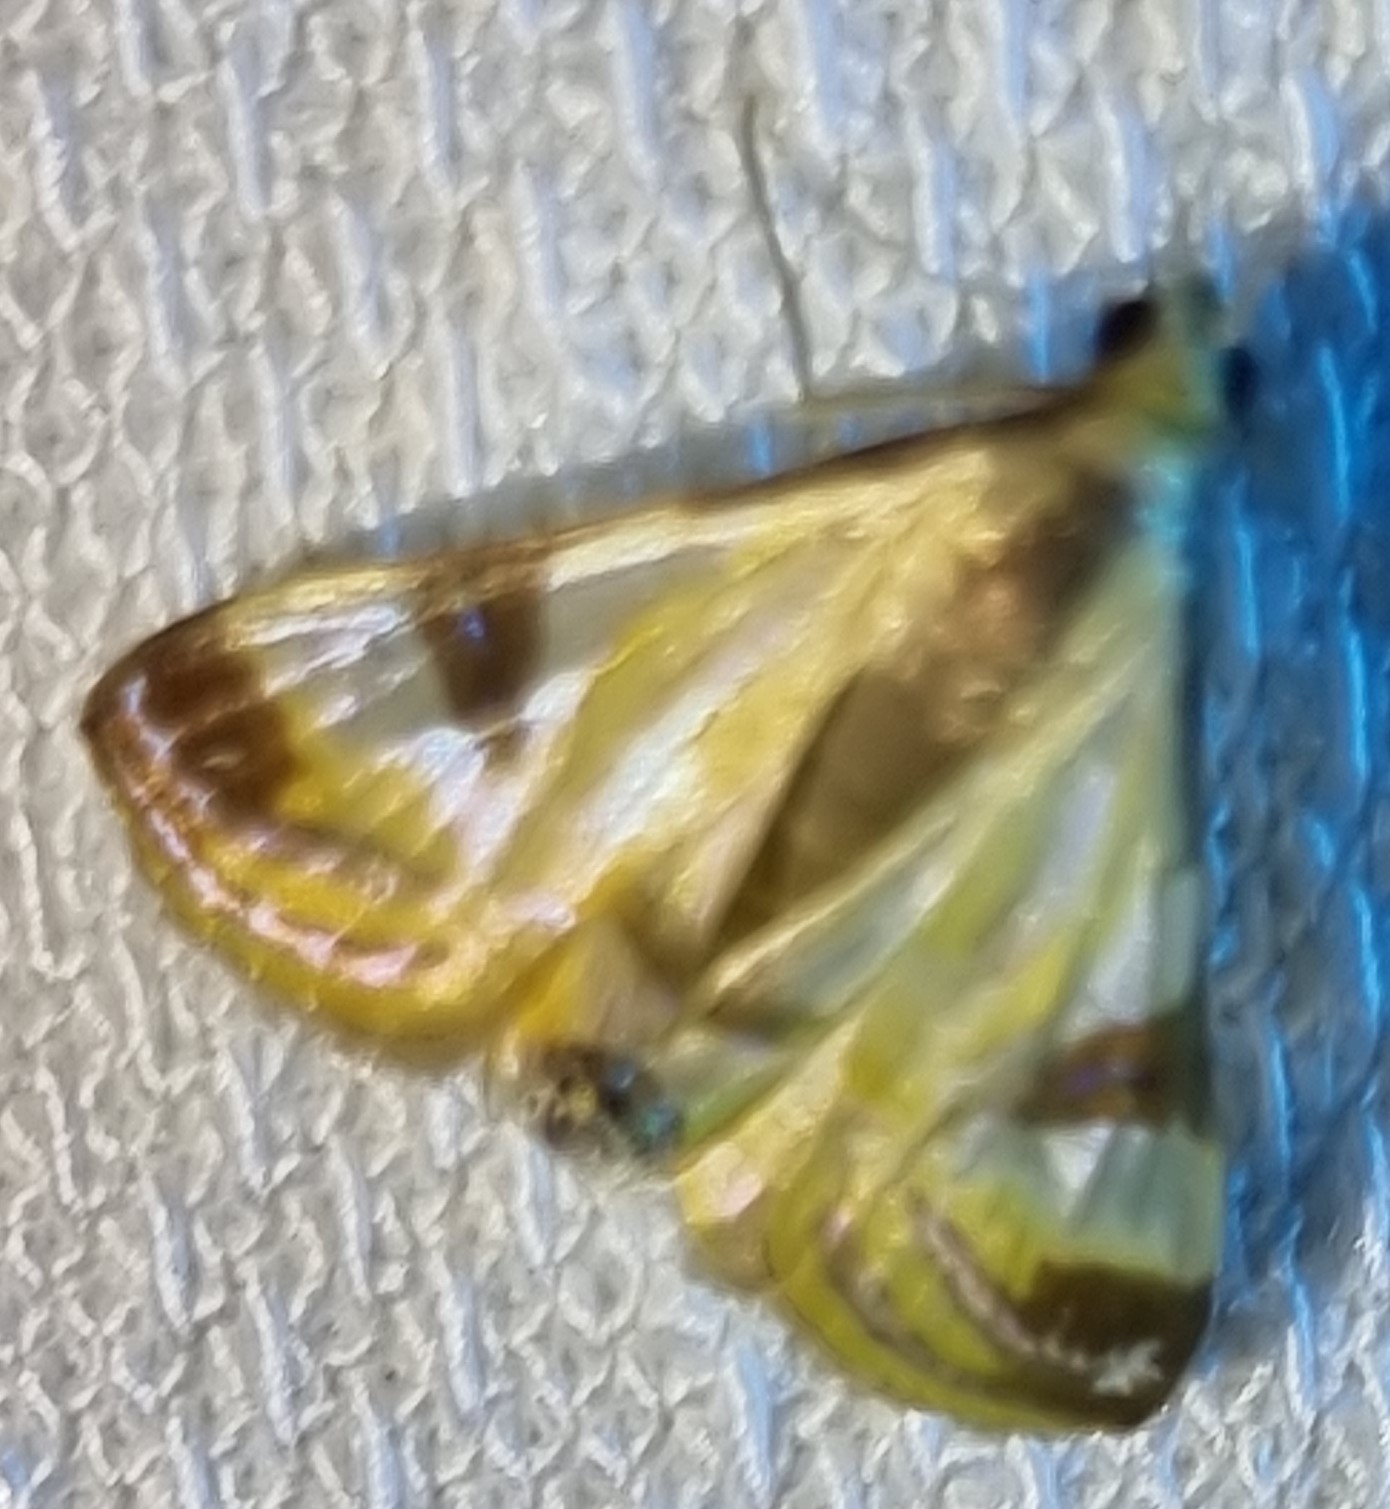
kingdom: Animalia
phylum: Arthropoda
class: Insecta
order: Lepidoptera
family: Crambidae
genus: Talanga
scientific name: Talanga tolumnialis
